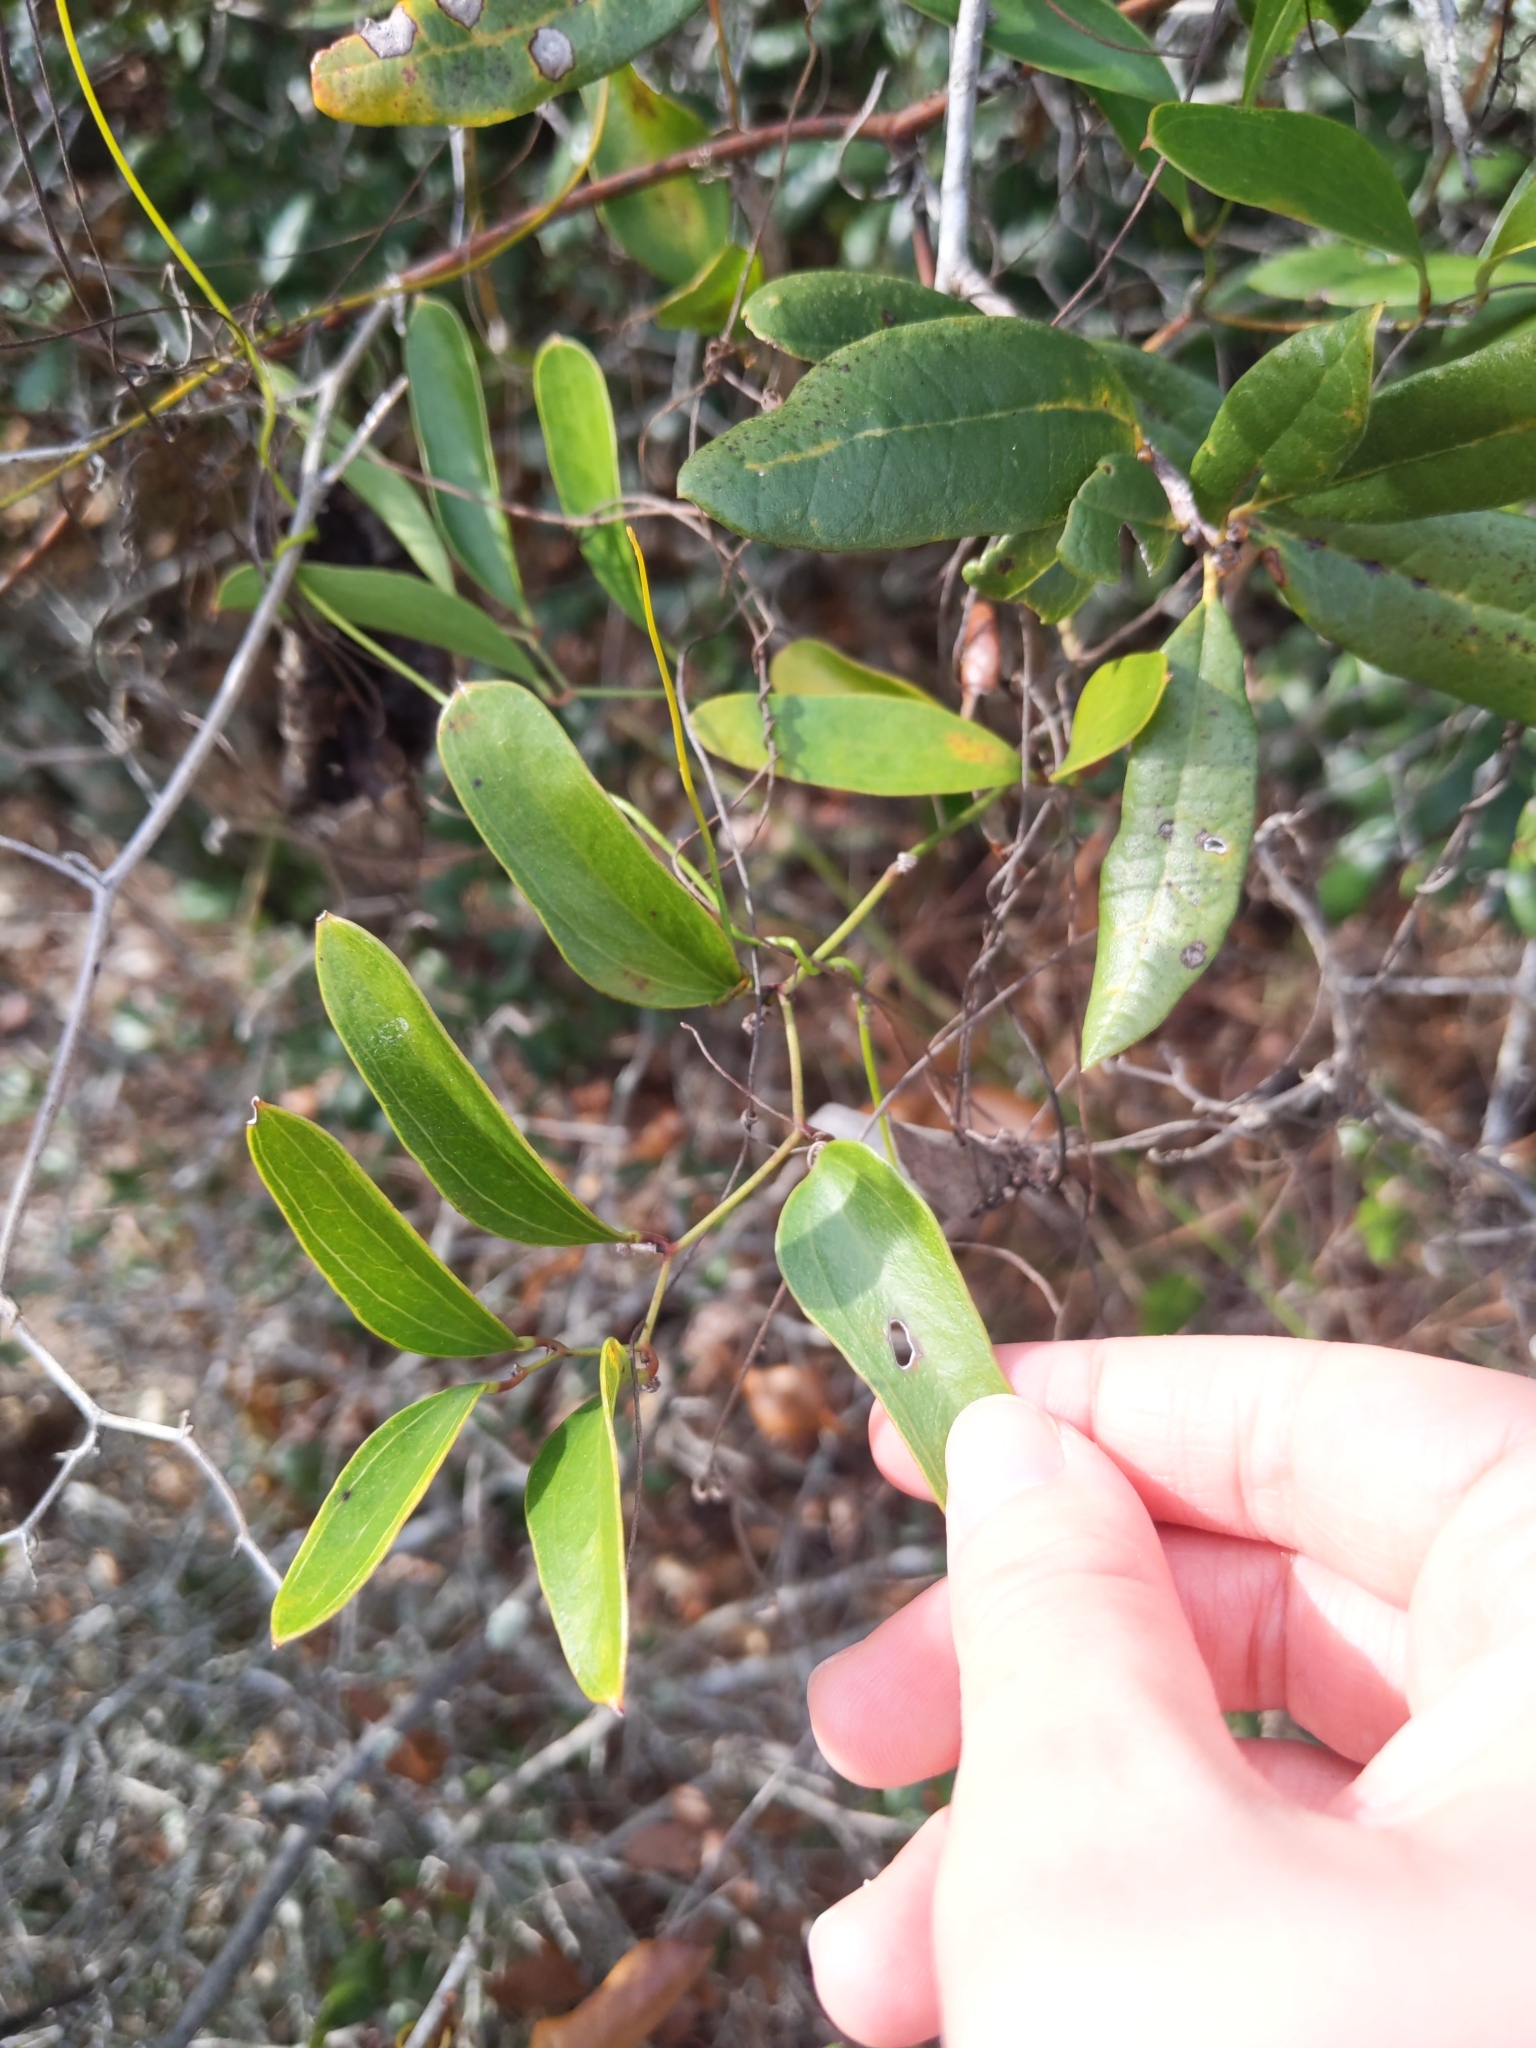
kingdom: Plantae
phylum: Tracheophyta
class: Liliopsida
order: Liliales
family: Smilacaceae
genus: Smilax
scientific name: Smilax auriculata
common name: Wild bamboo
